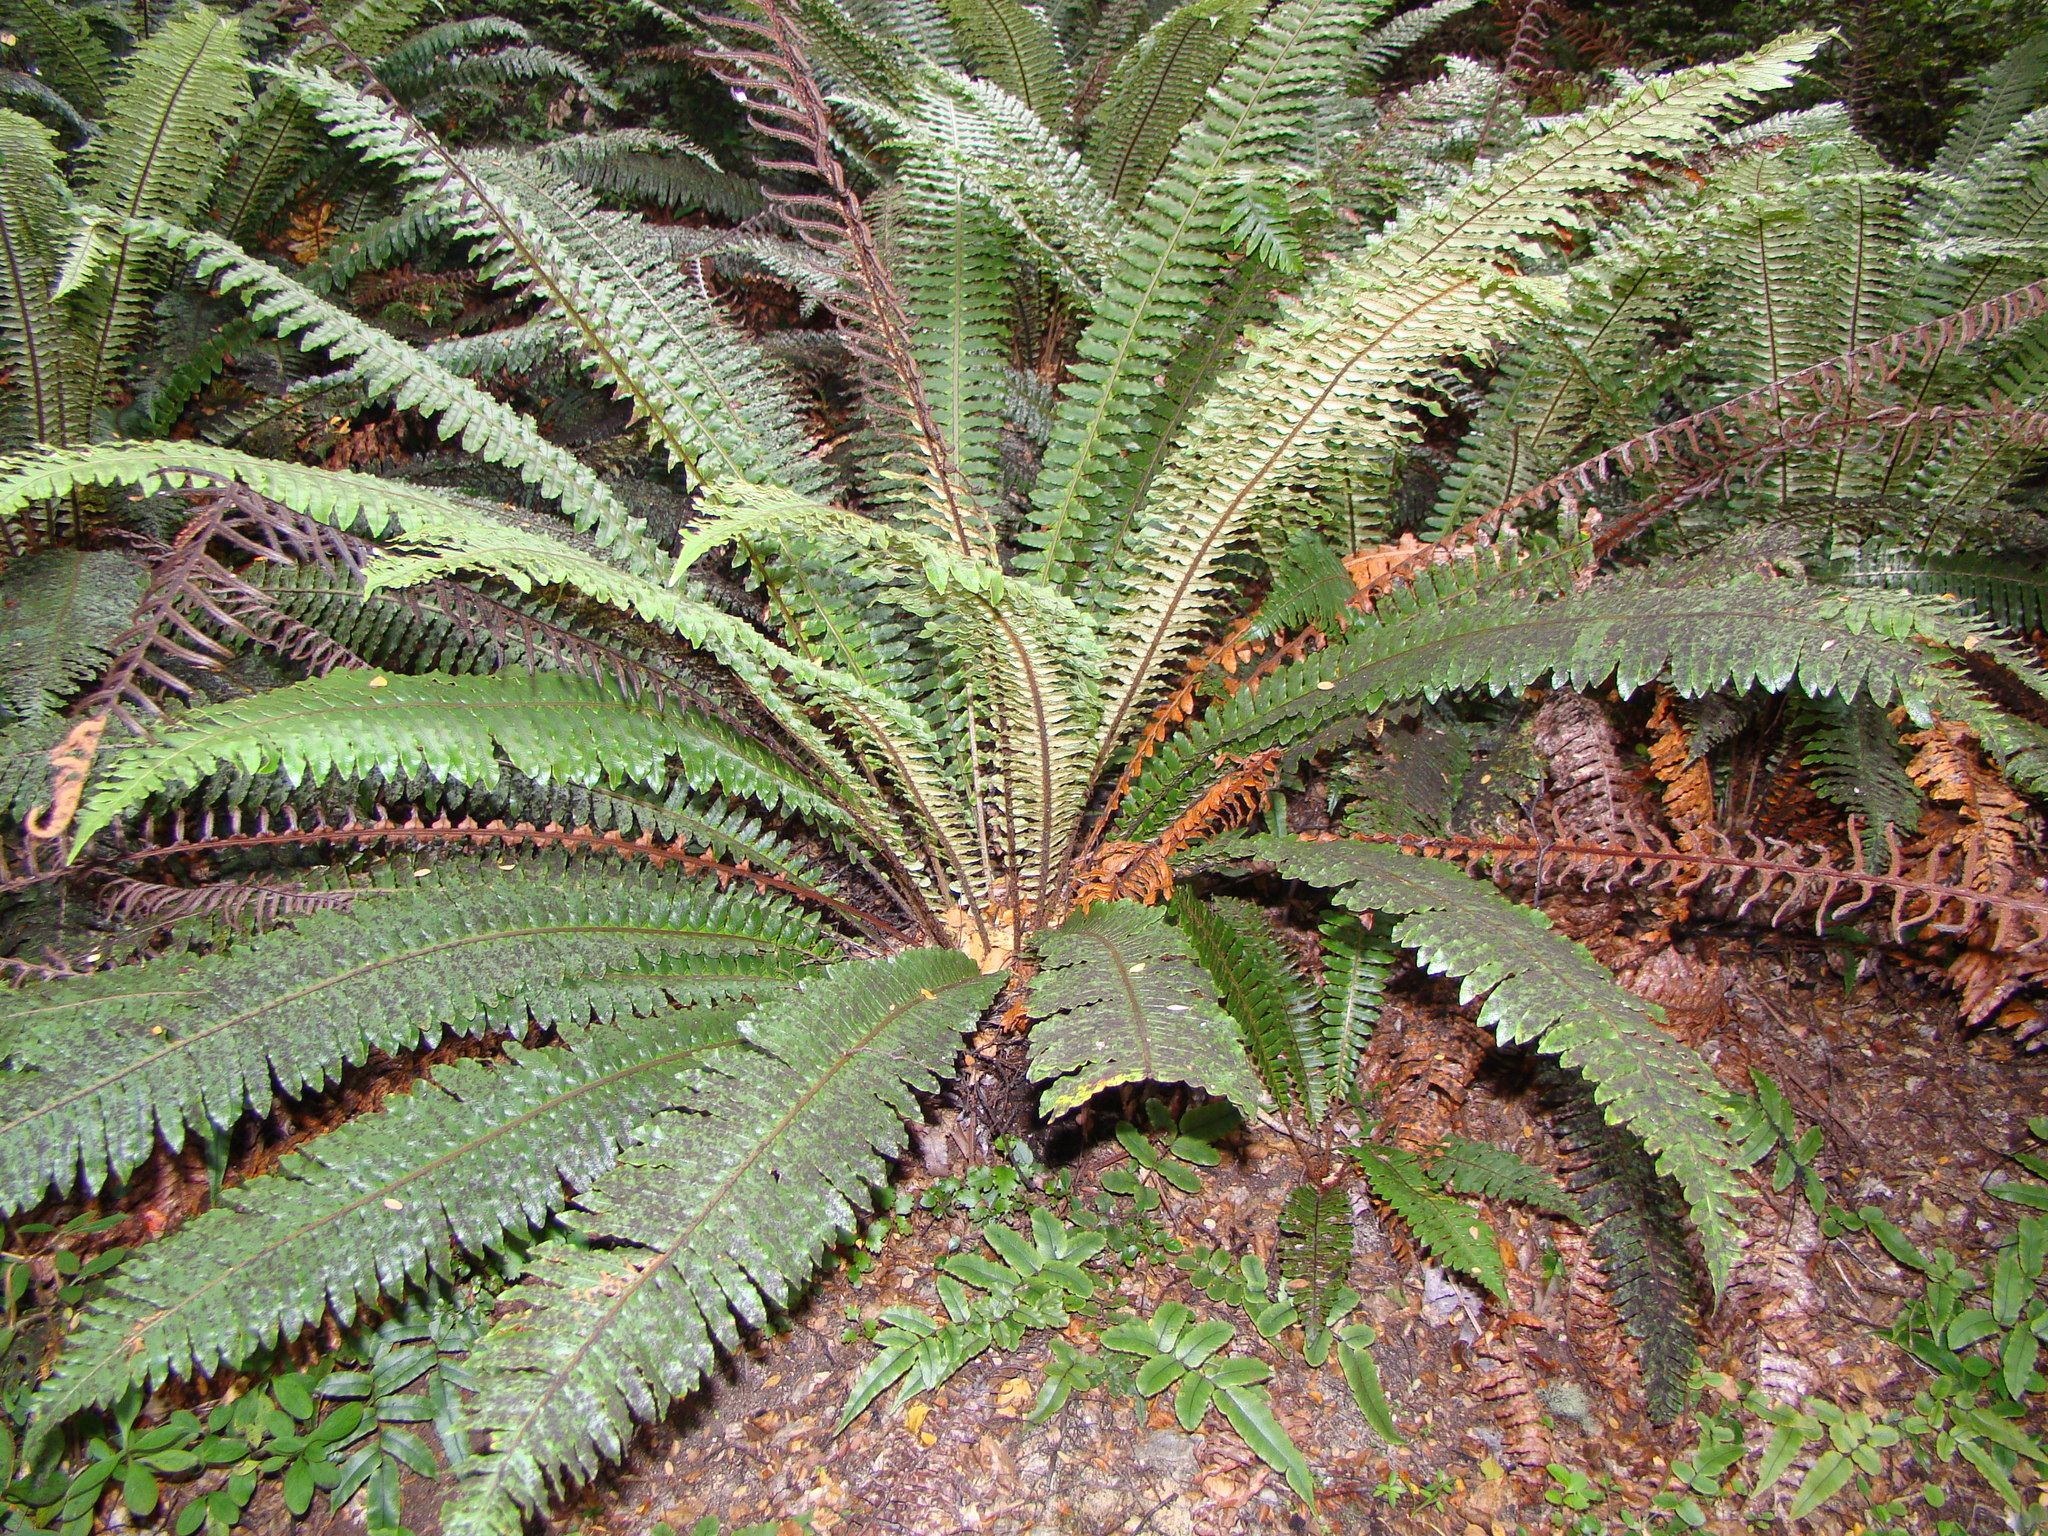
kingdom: Plantae
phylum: Tracheophyta
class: Polypodiopsida
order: Polypodiales
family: Blechnaceae
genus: Lomaria
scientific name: Lomaria discolor
